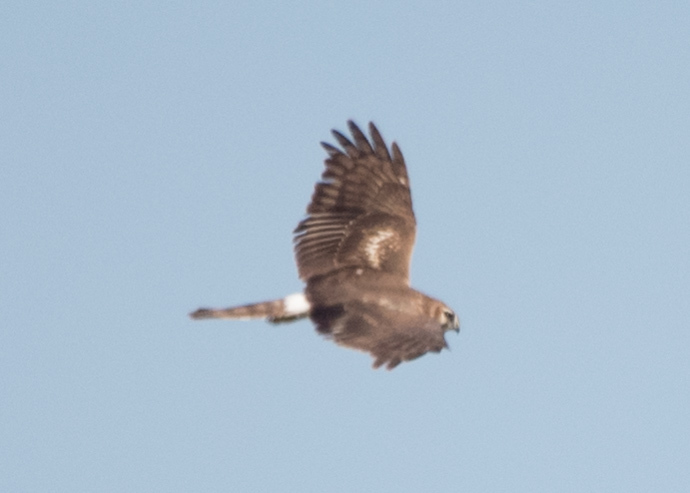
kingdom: Animalia
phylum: Chordata
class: Aves
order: Accipitriformes
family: Accipitridae
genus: Circus
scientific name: Circus cyaneus
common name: Hen harrier
